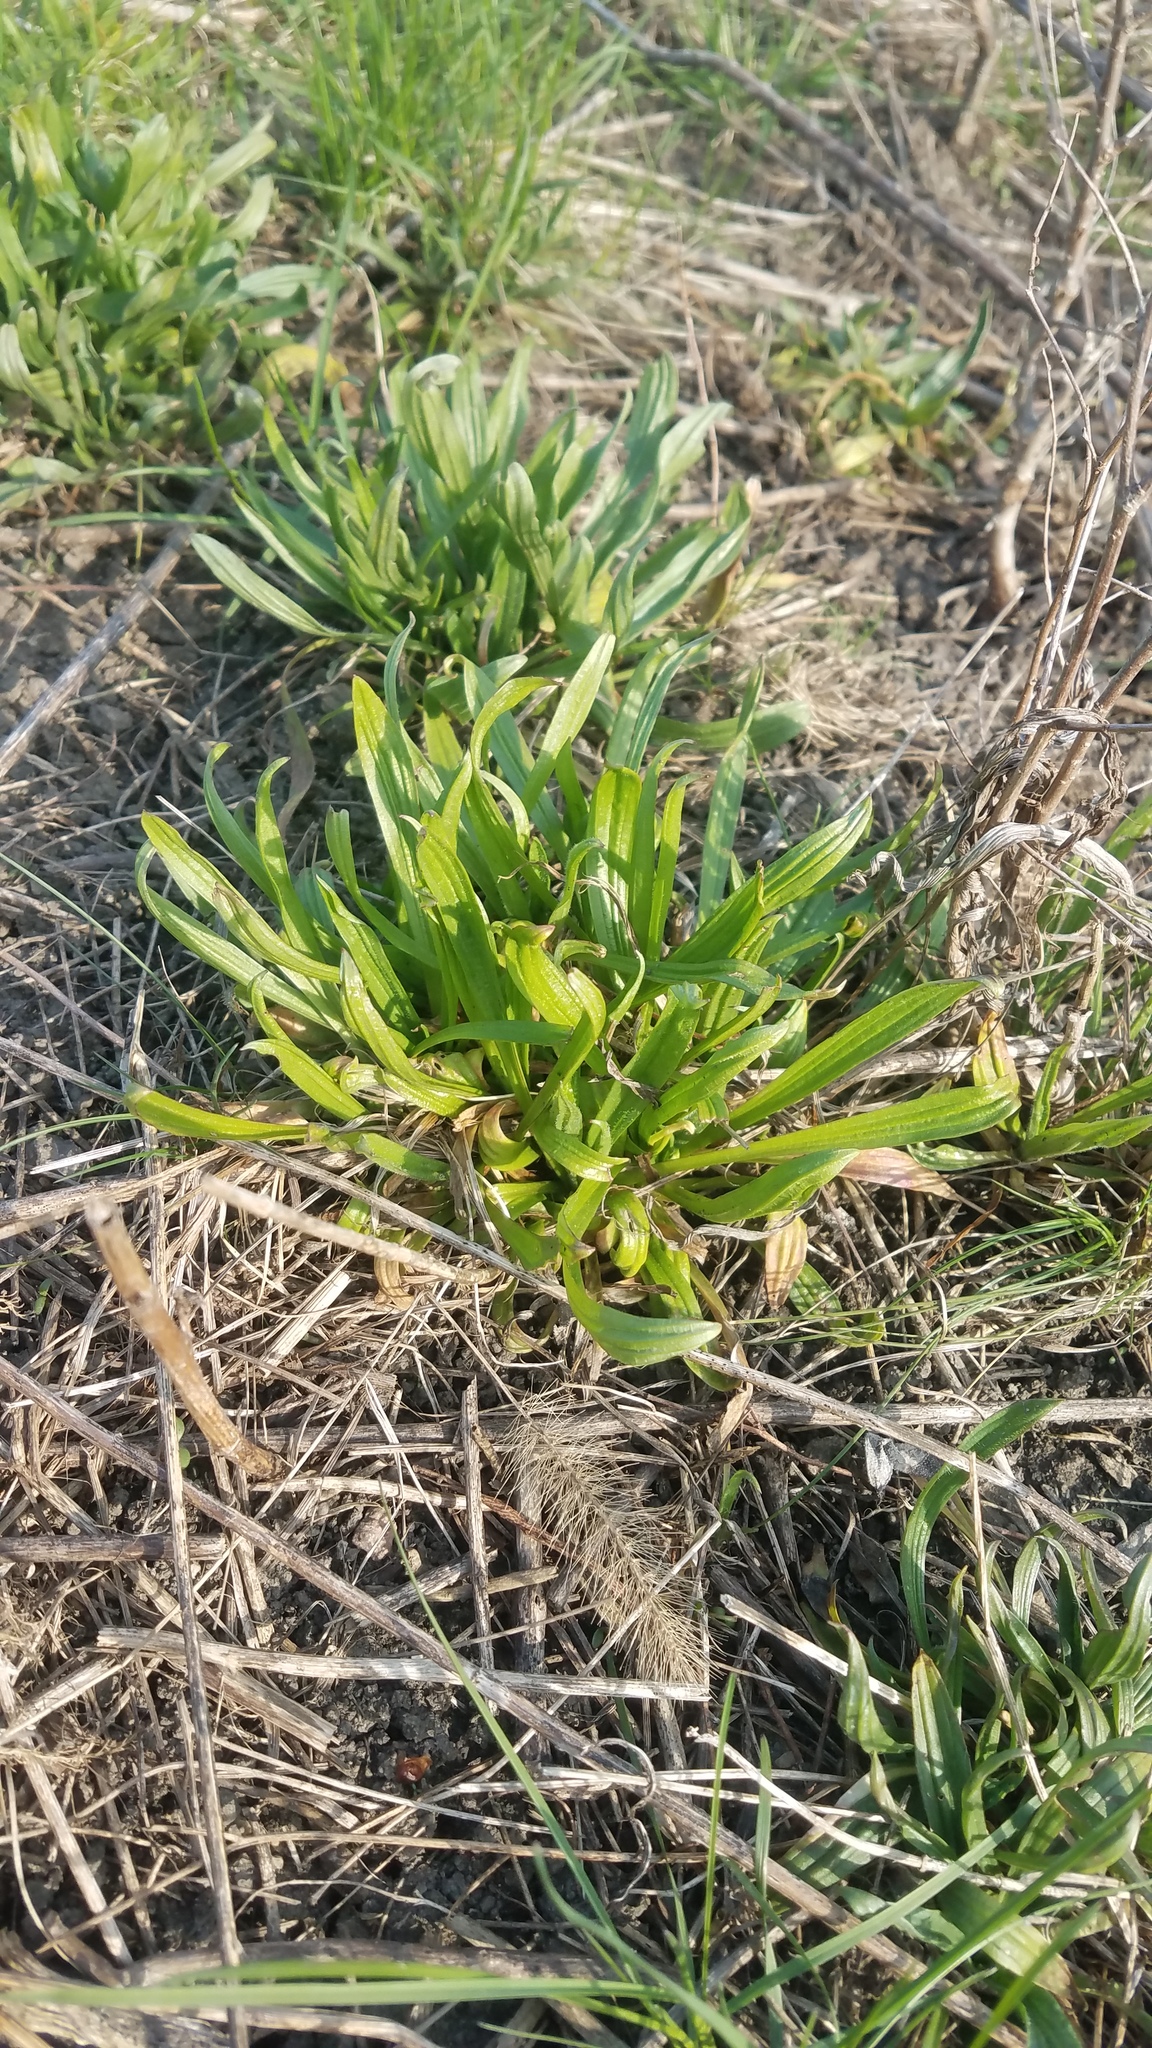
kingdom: Plantae
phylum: Tracheophyta
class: Magnoliopsida
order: Lamiales
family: Plantaginaceae
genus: Plantago
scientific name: Plantago lanceolata
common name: Ribwort plantain
